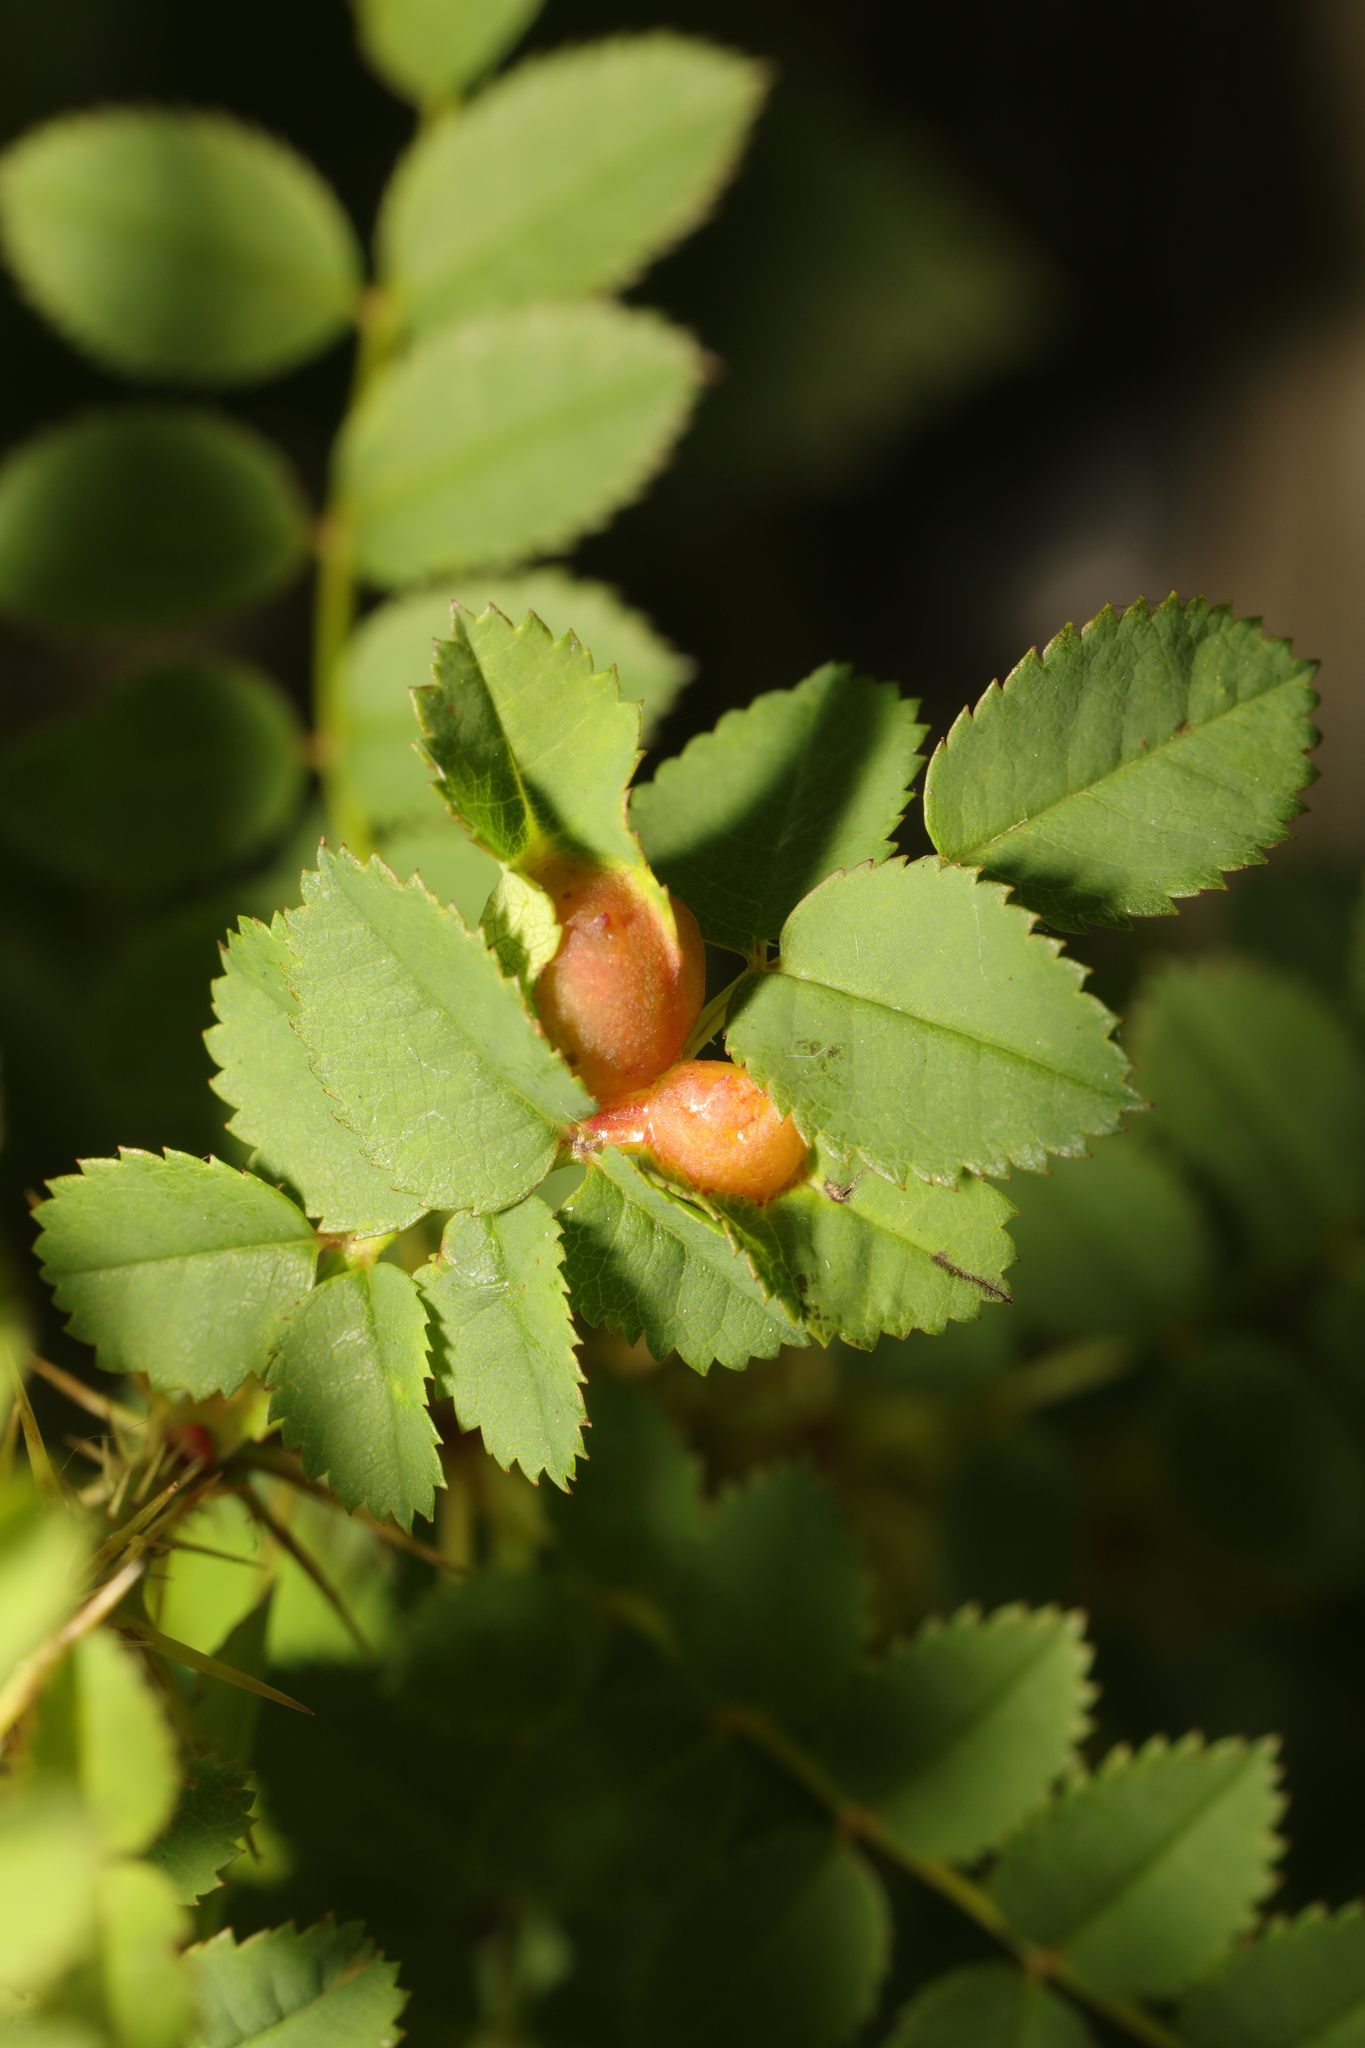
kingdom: Animalia
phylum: Arthropoda
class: Insecta
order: Hymenoptera
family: Cynipidae
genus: Diplolepis
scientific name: Diplolepis spinosissimae
